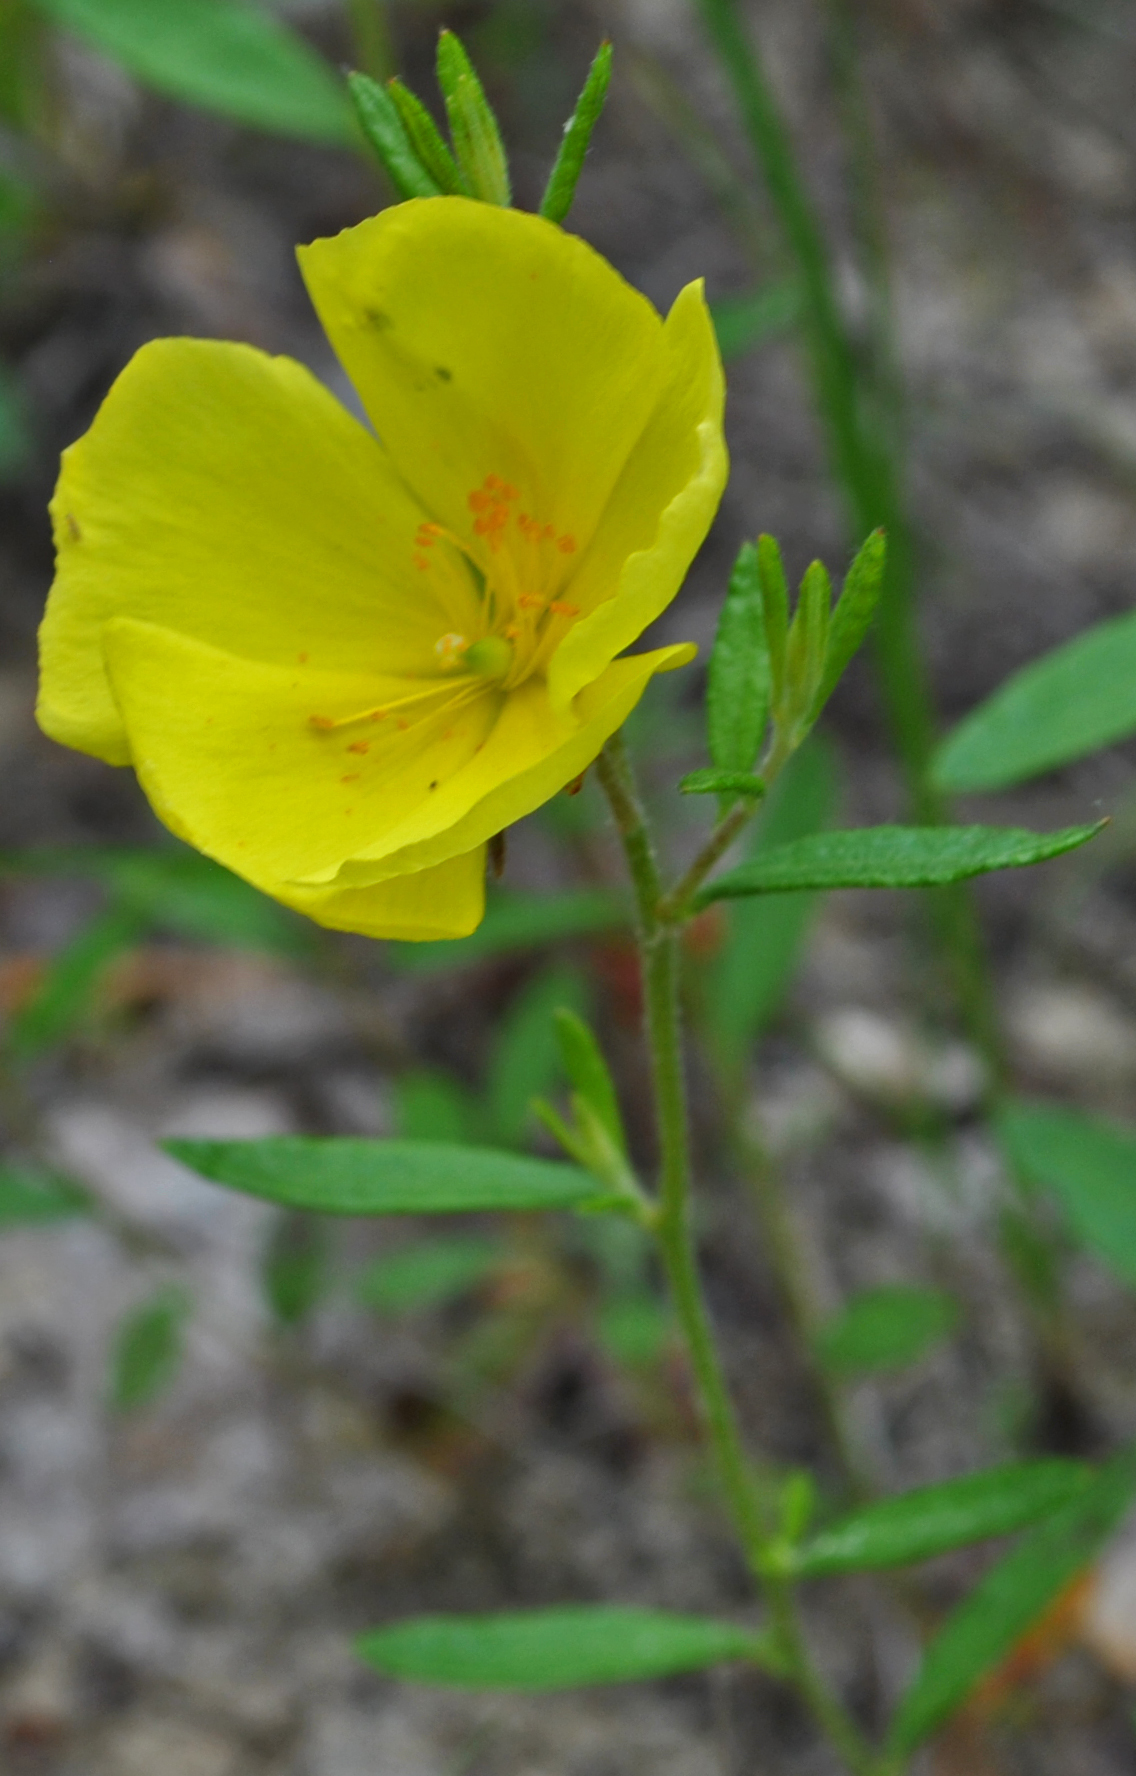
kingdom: Plantae
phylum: Tracheophyta
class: Magnoliopsida
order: Malvales
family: Cistaceae
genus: Crocanthemum
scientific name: Crocanthemum canadense
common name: Canada frostweed
